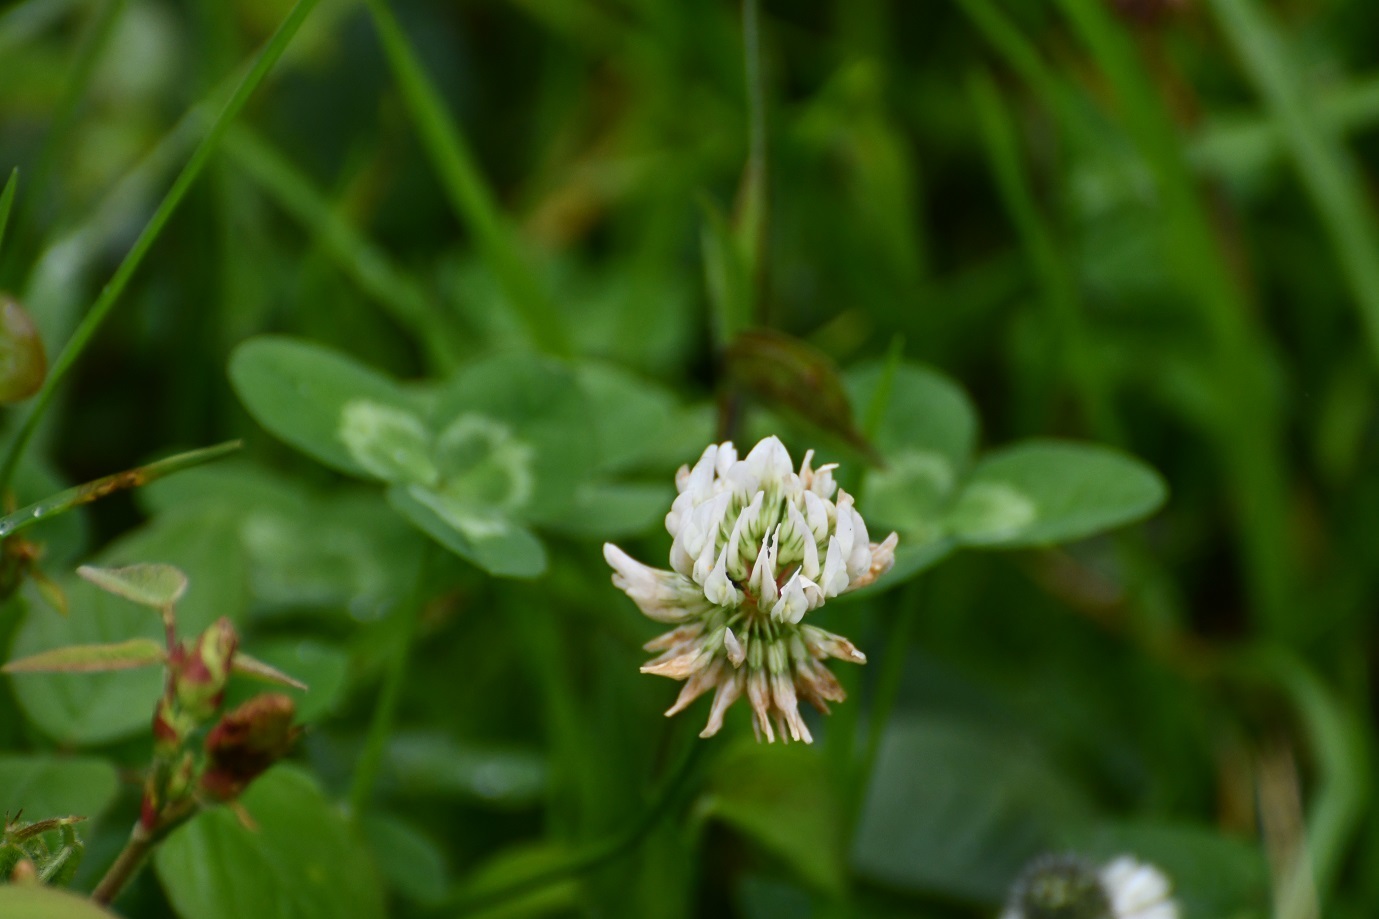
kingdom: Plantae
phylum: Tracheophyta
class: Magnoliopsida
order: Fabales
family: Fabaceae
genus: Trifolium
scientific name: Trifolium repens
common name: White clover
